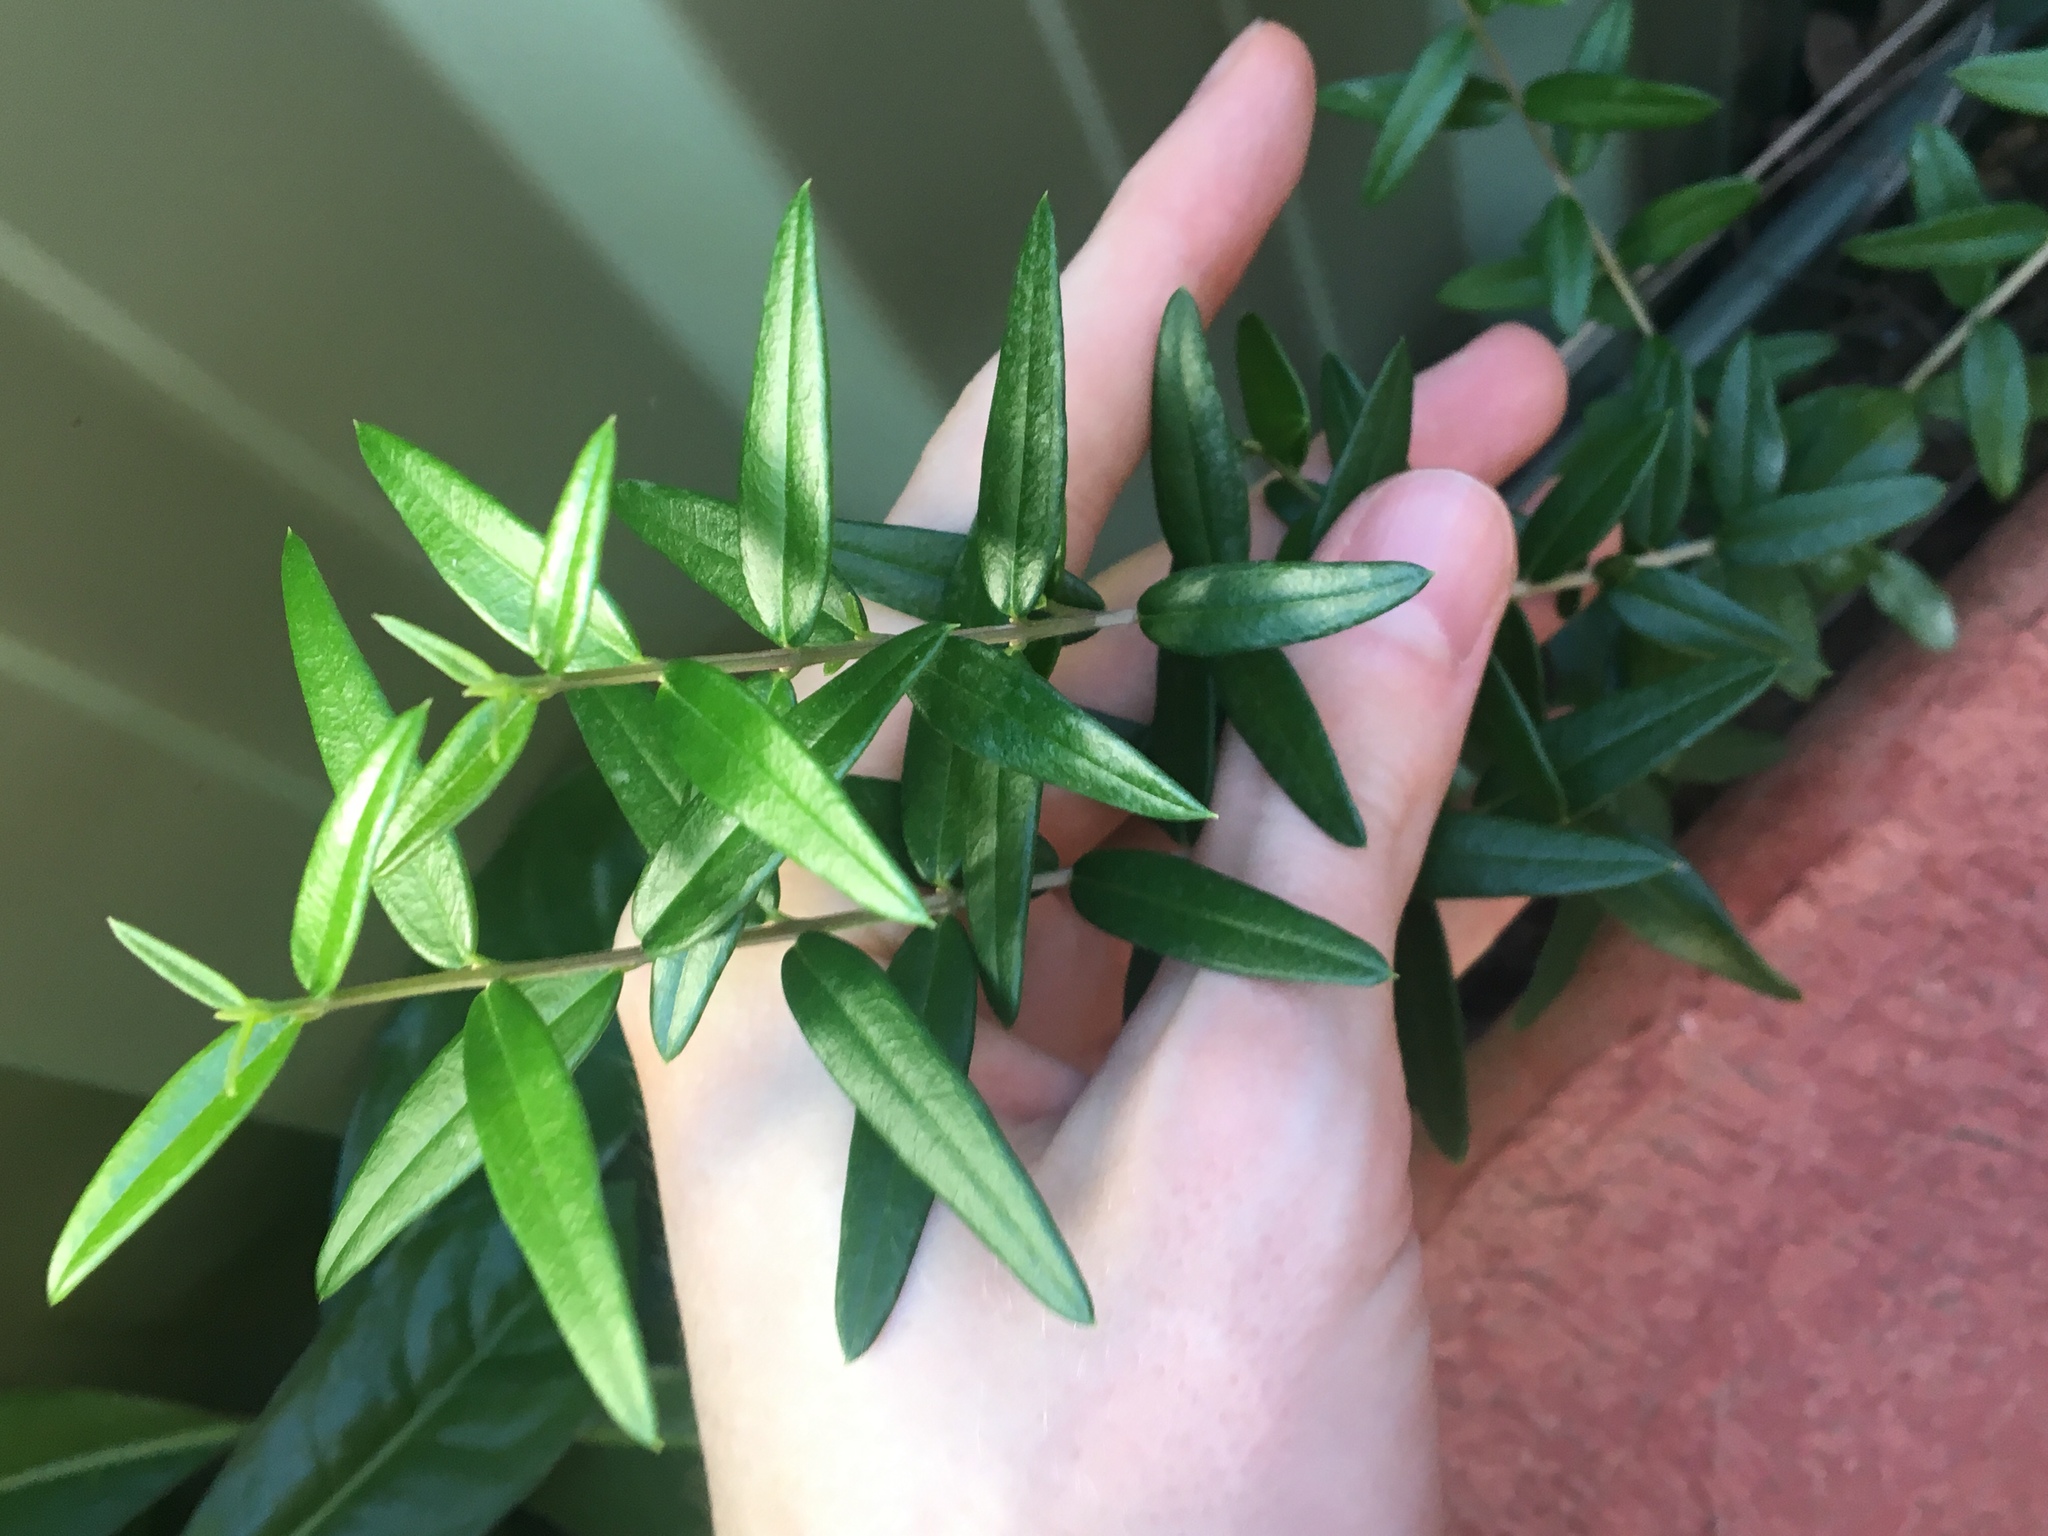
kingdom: Plantae
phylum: Tracheophyta
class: Magnoliopsida
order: Lamiales
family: Oleaceae
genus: Olea
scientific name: Olea europaea
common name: Olive
